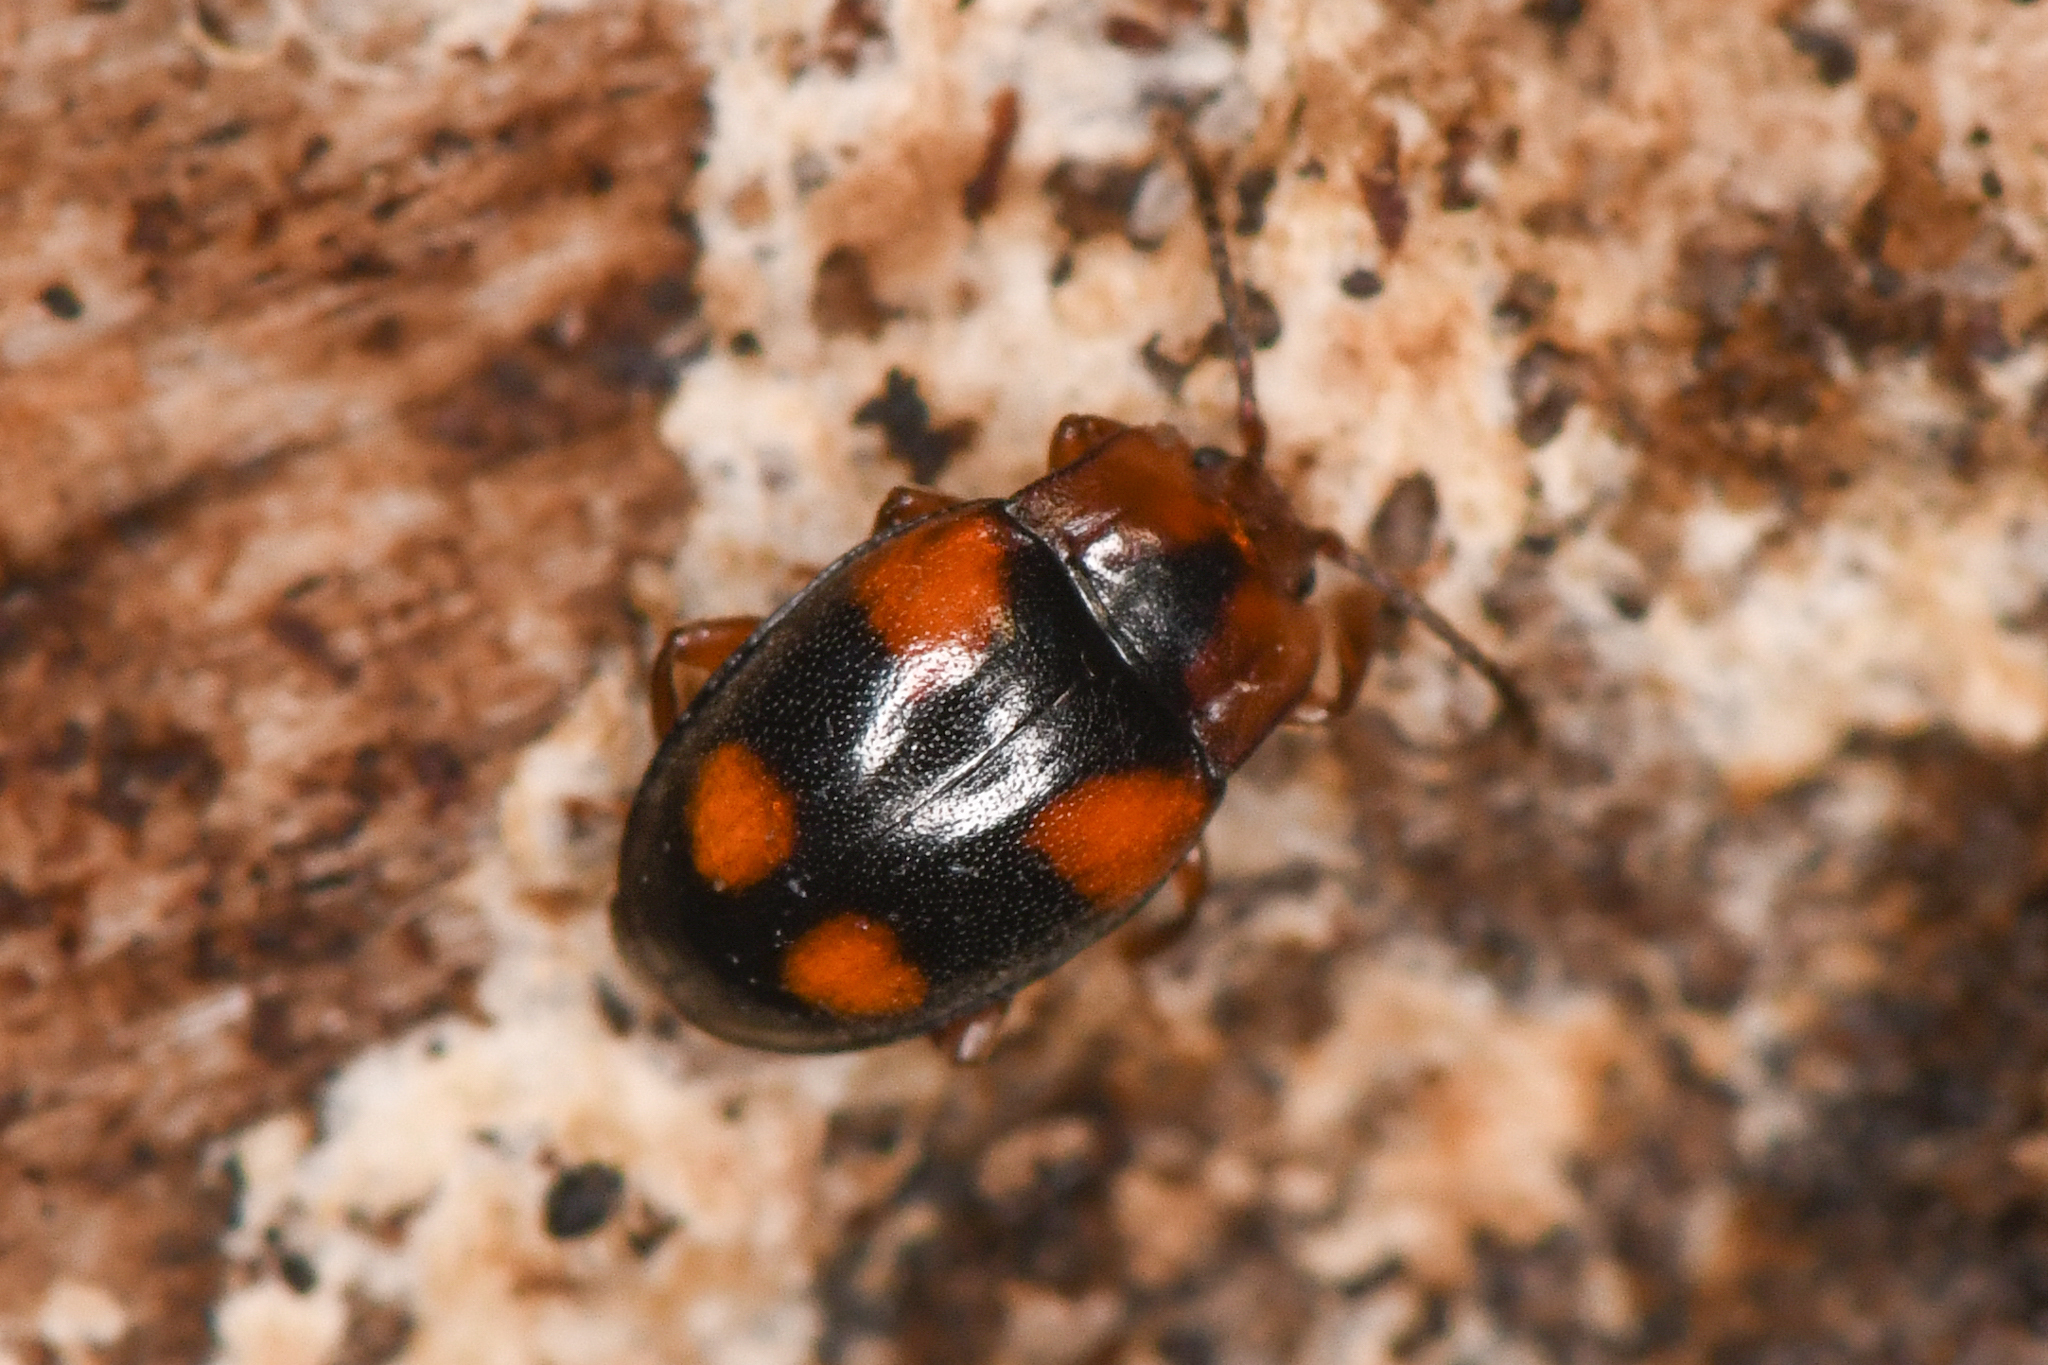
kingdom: Animalia
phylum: Arthropoda
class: Insecta
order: Coleoptera
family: Endomychidae
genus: Mycetina
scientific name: Mycetina hornii
